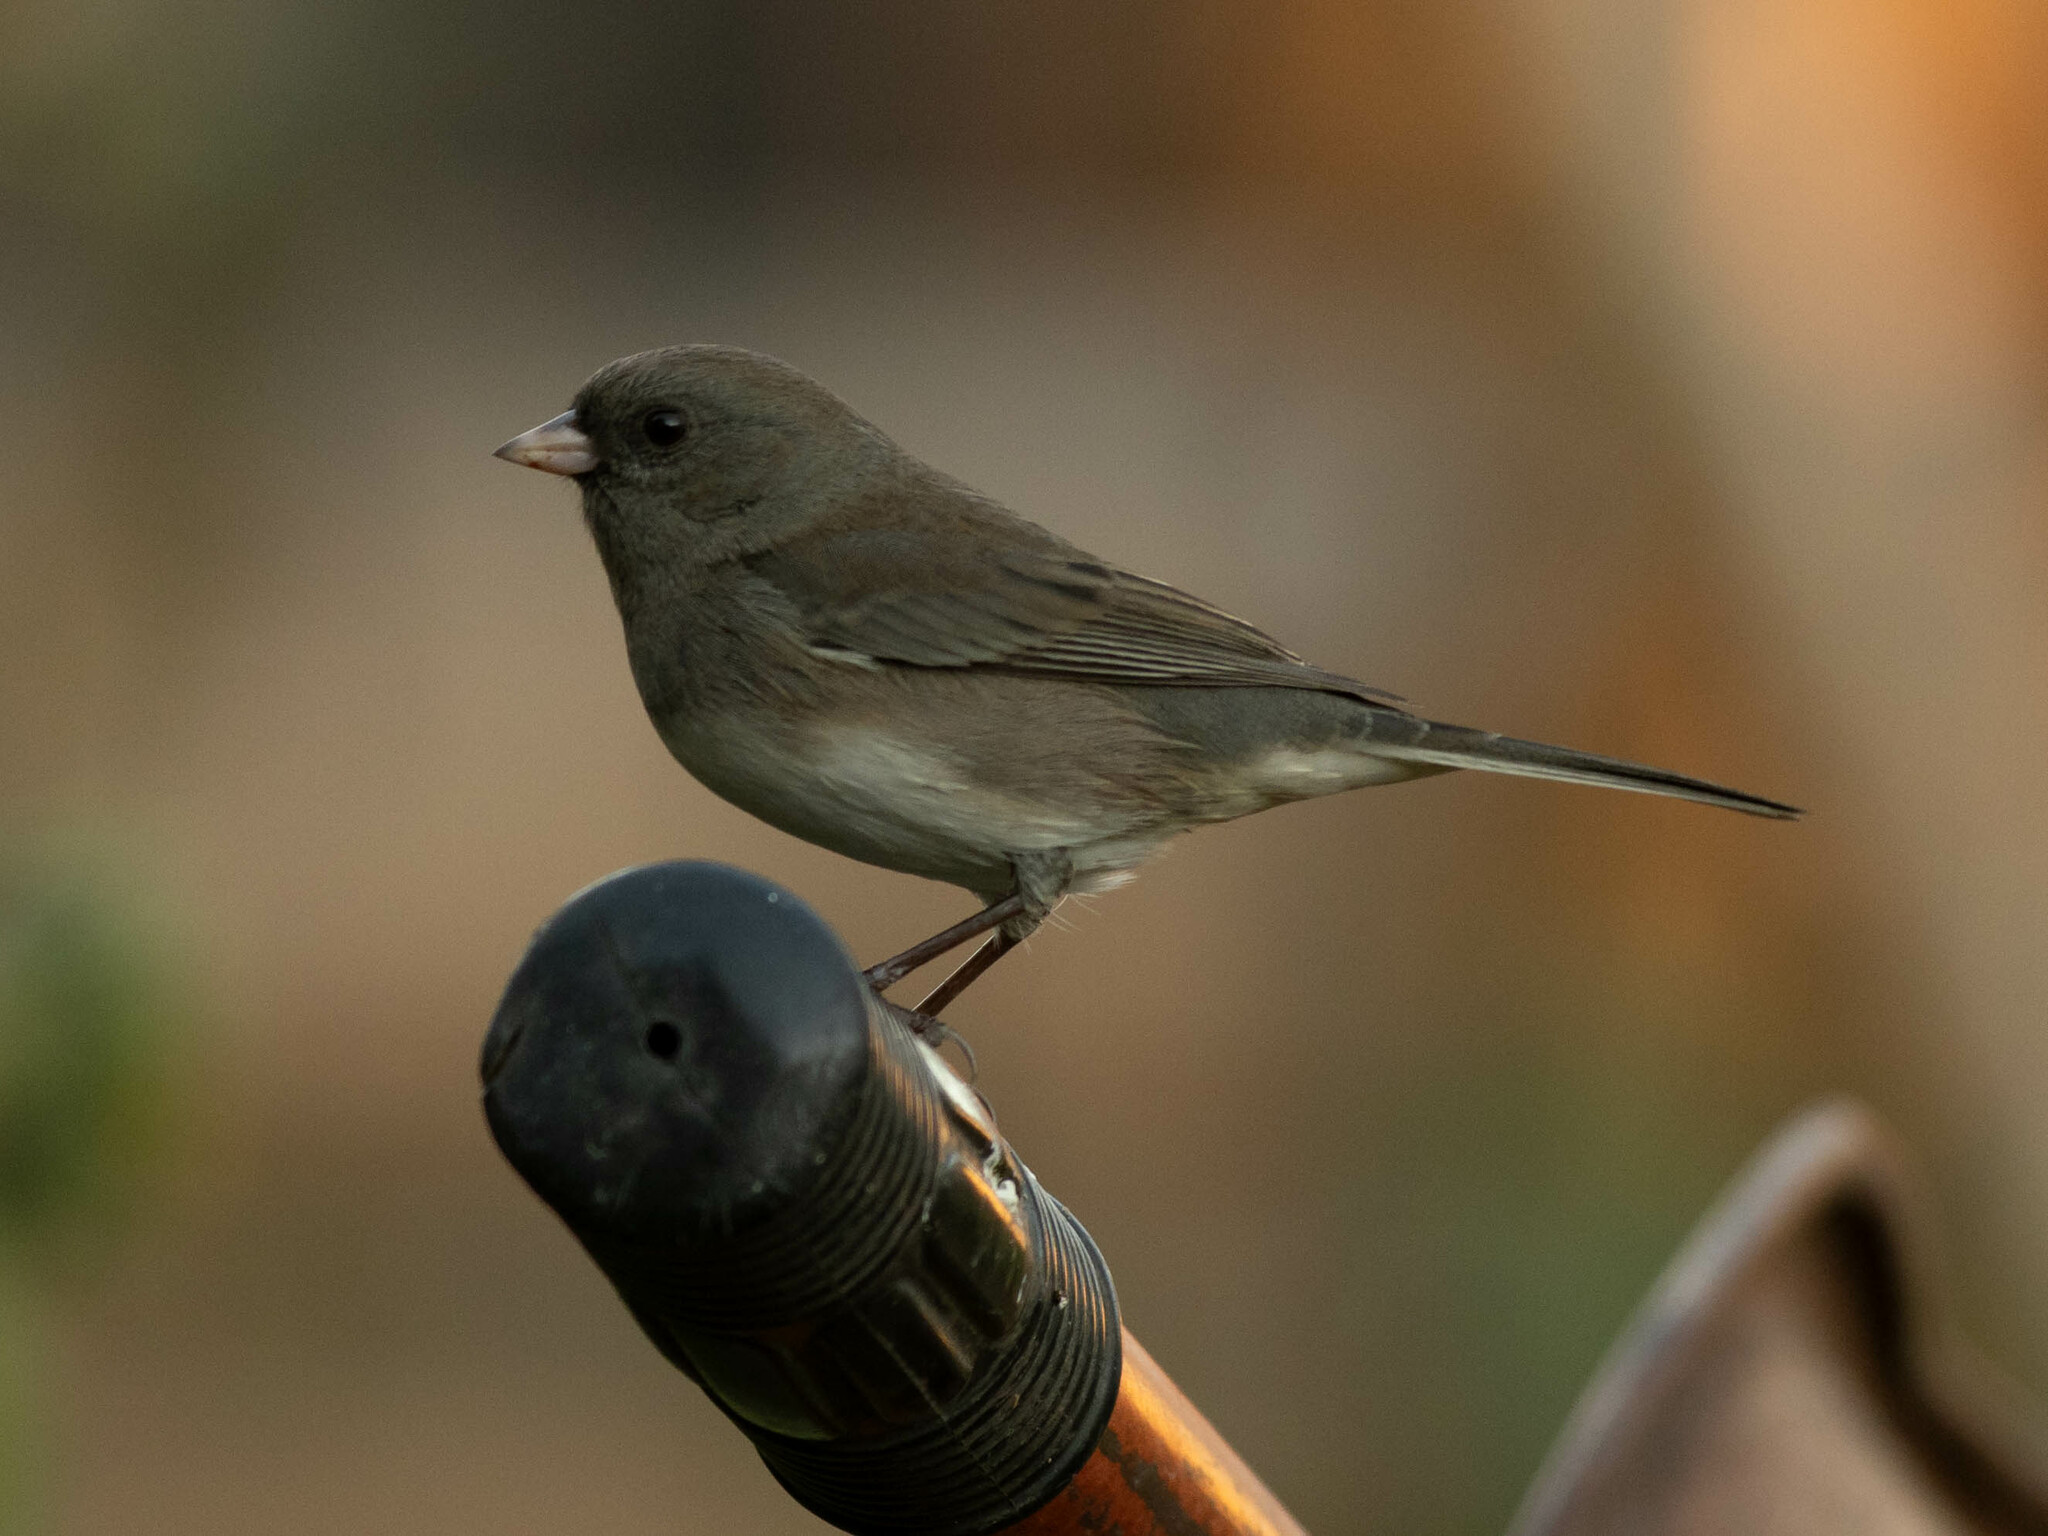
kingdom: Animalia
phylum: Chordata
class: Aves
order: Passeriformes
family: Passerellidae
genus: Junco
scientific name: Junco hyemalis
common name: Dark-eyed junco
